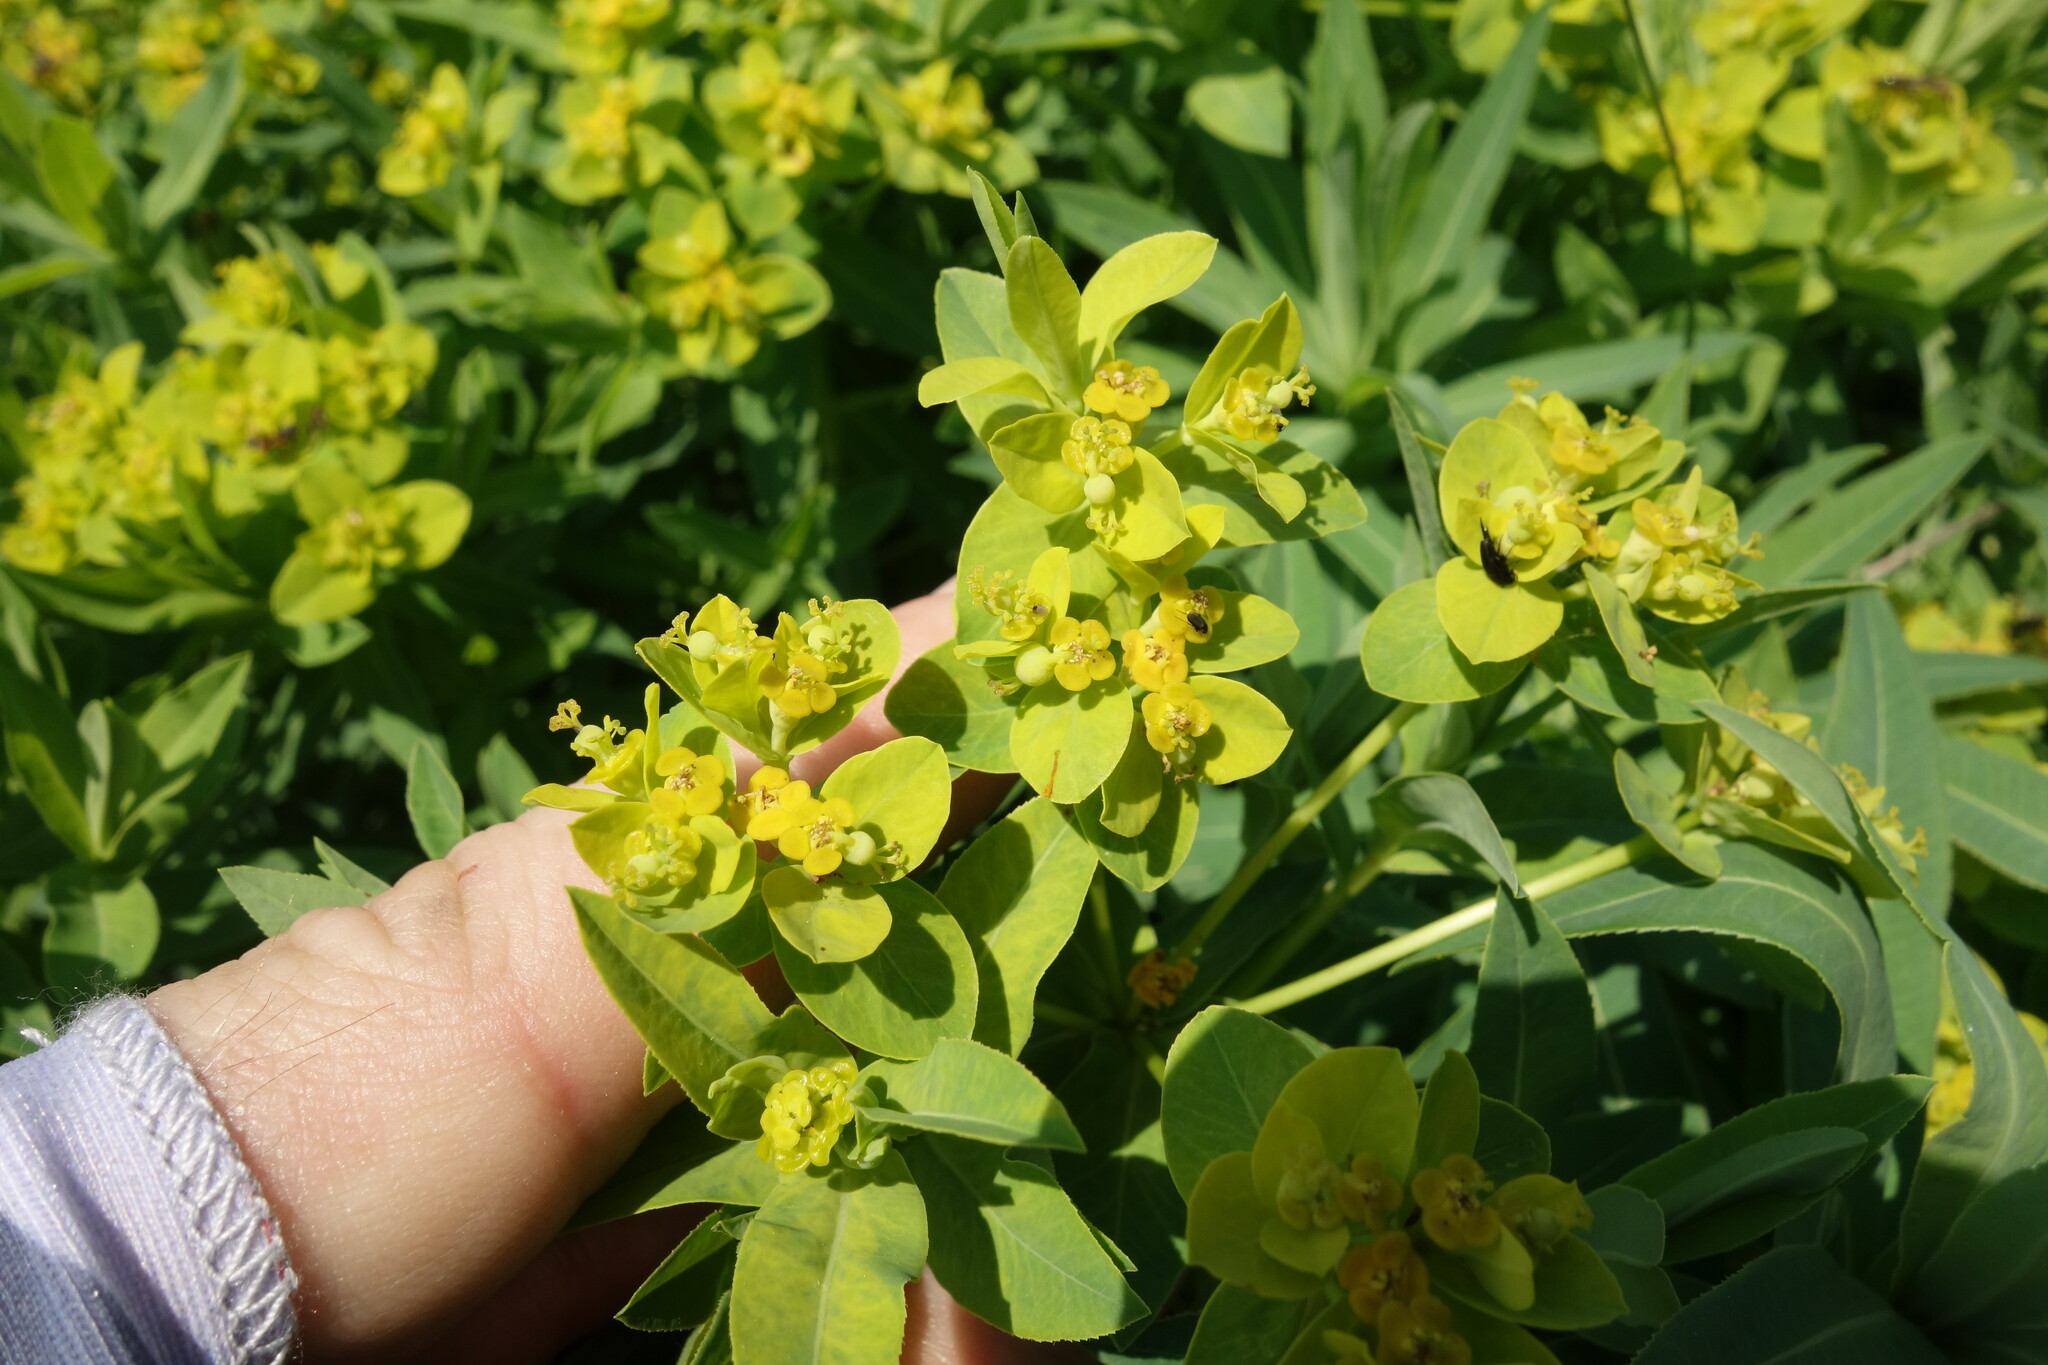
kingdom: Plantae
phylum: Tracheophyta
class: Magnoliopsida
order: Malpighiales
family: Euphorbiaceae
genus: Euphorbia
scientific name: Euphorbia semivillosa
